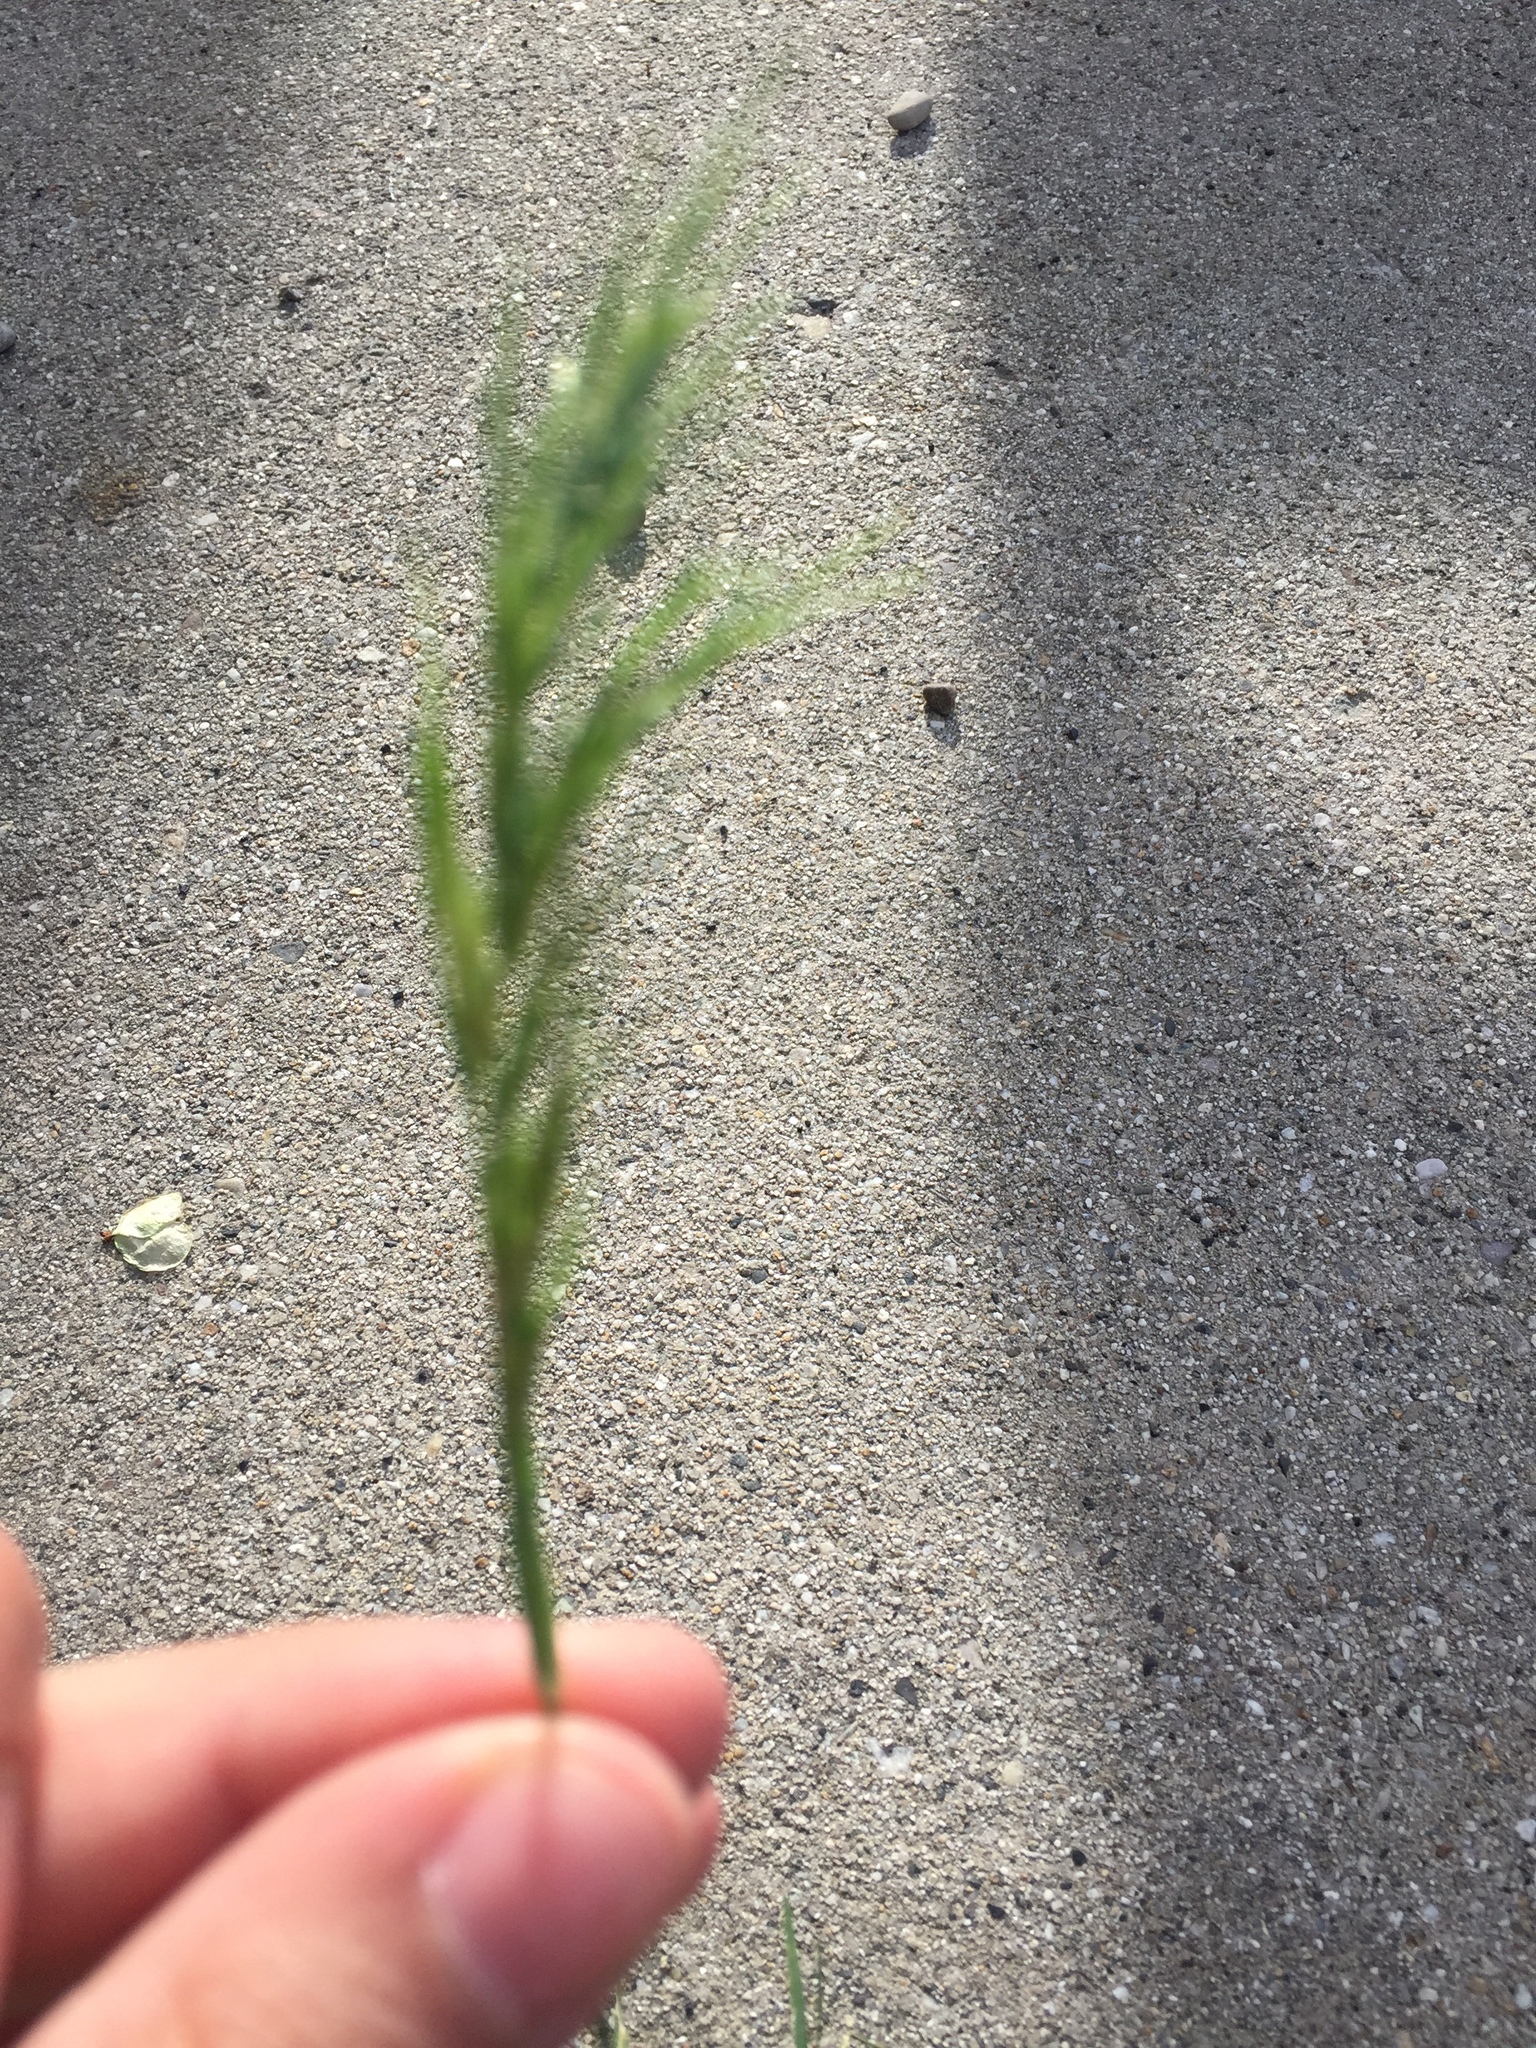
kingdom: Plantae
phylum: Tracheophyta
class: Liliopsida
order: Poales
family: Poaceae
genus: Poa
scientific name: Poa bulbosa
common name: Bulbous bluegrass
